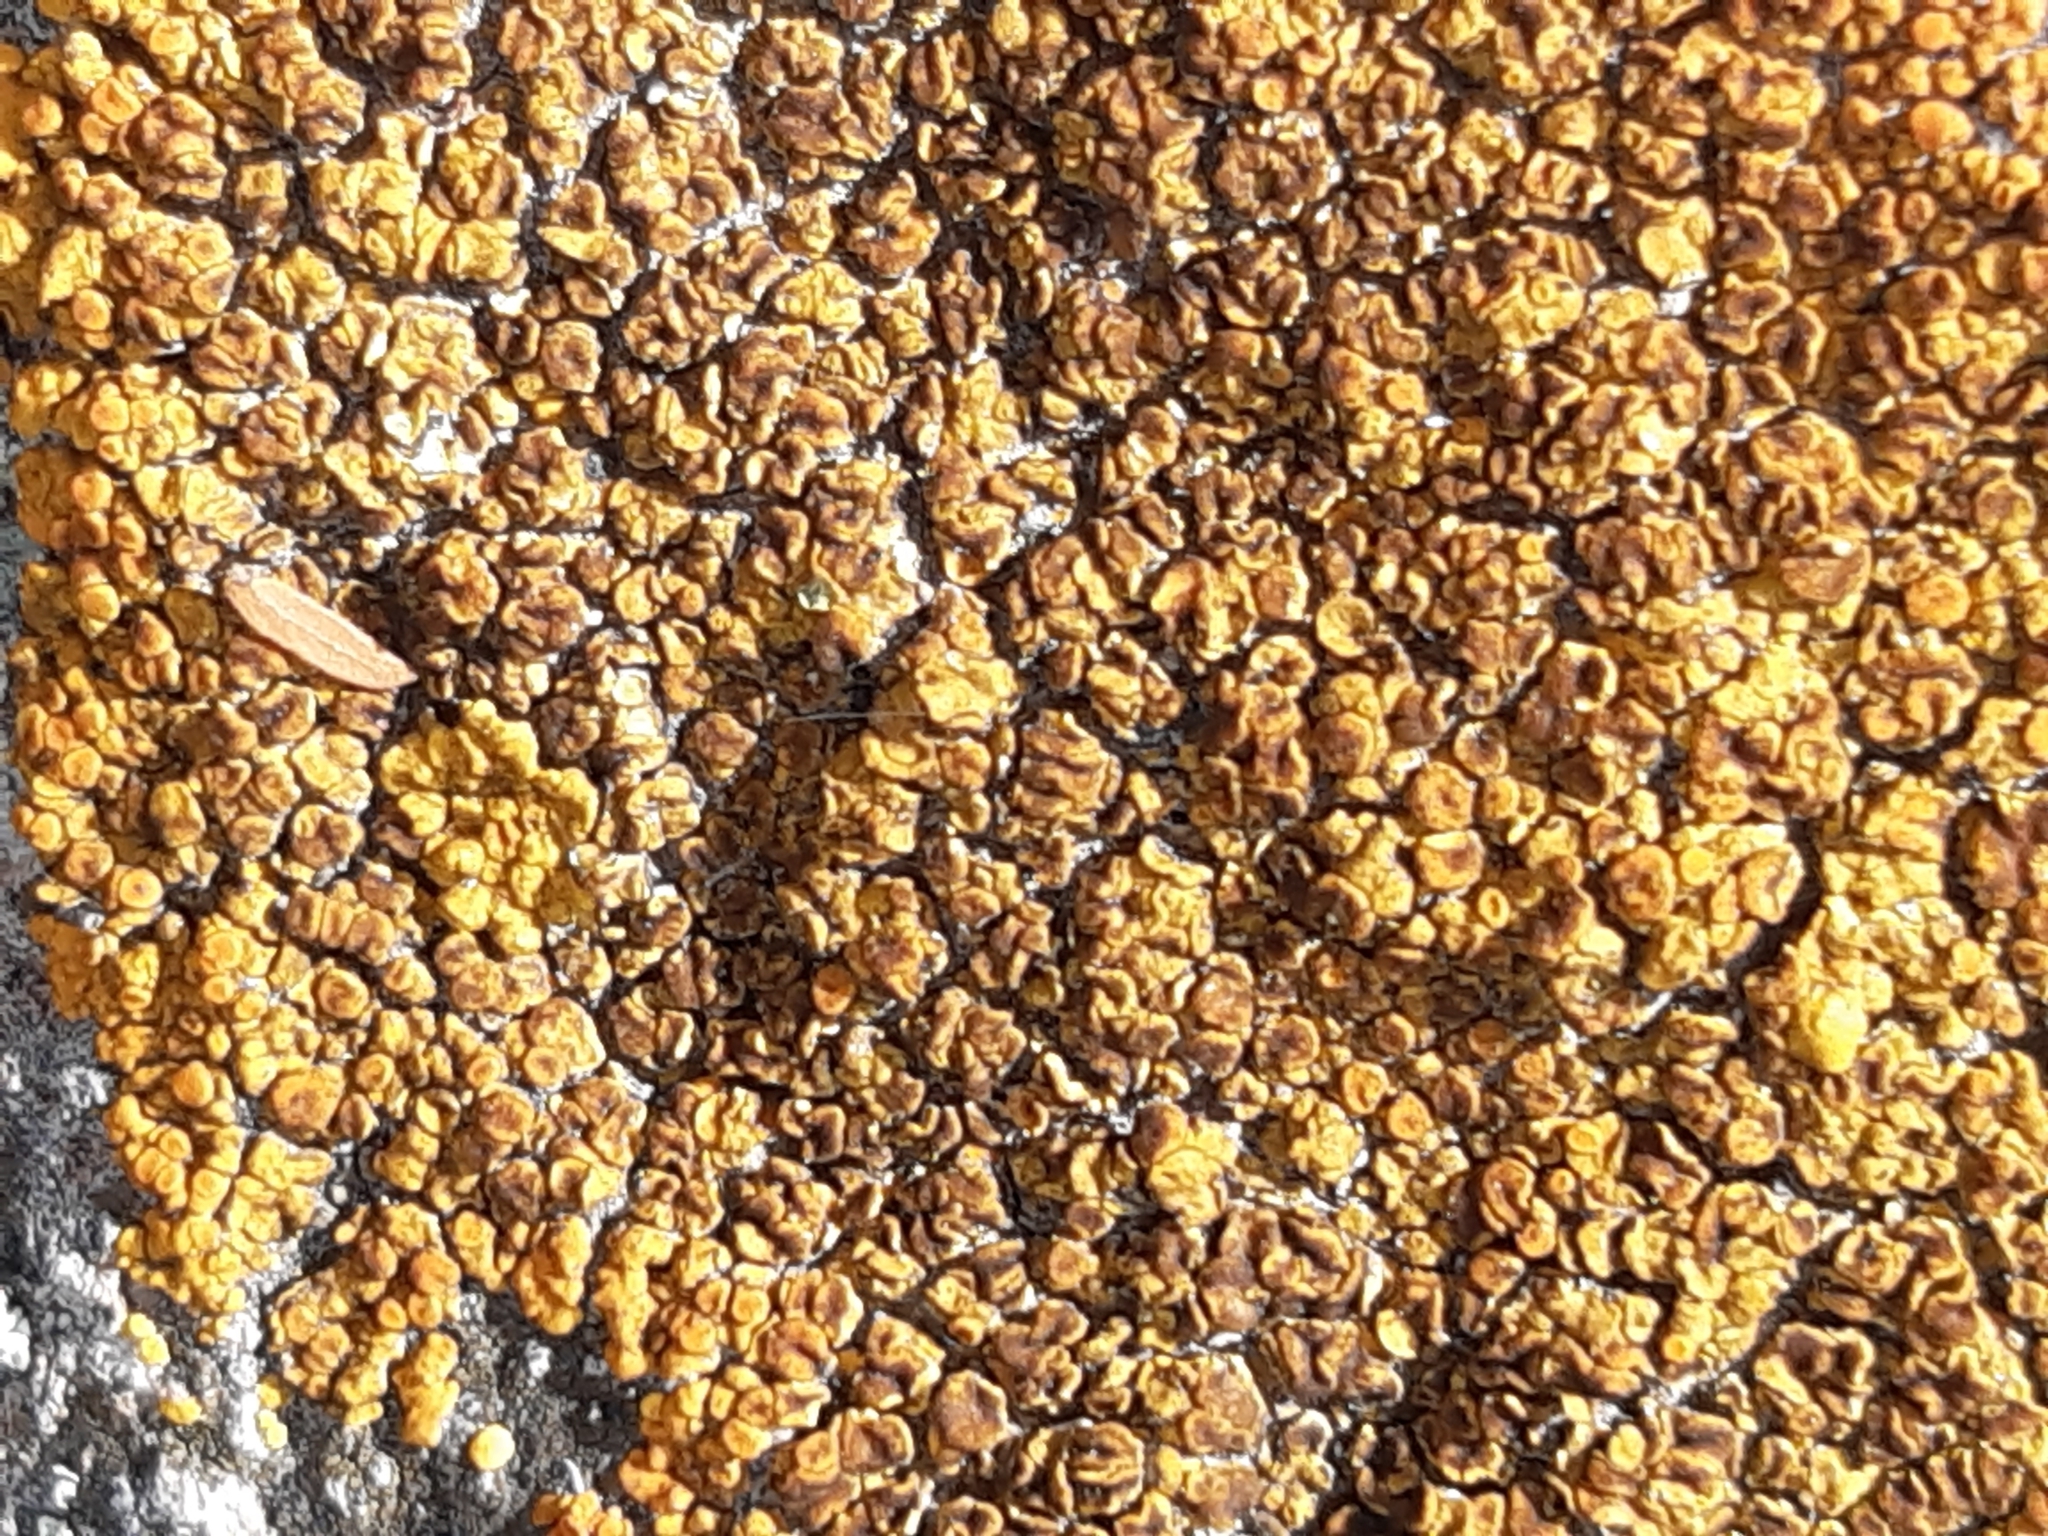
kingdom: Fungi
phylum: Ascomycota
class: Lecanoromycetes
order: Teloschistales
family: Teloschistaceae
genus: Squamulea
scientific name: Squamulea subsoluta
